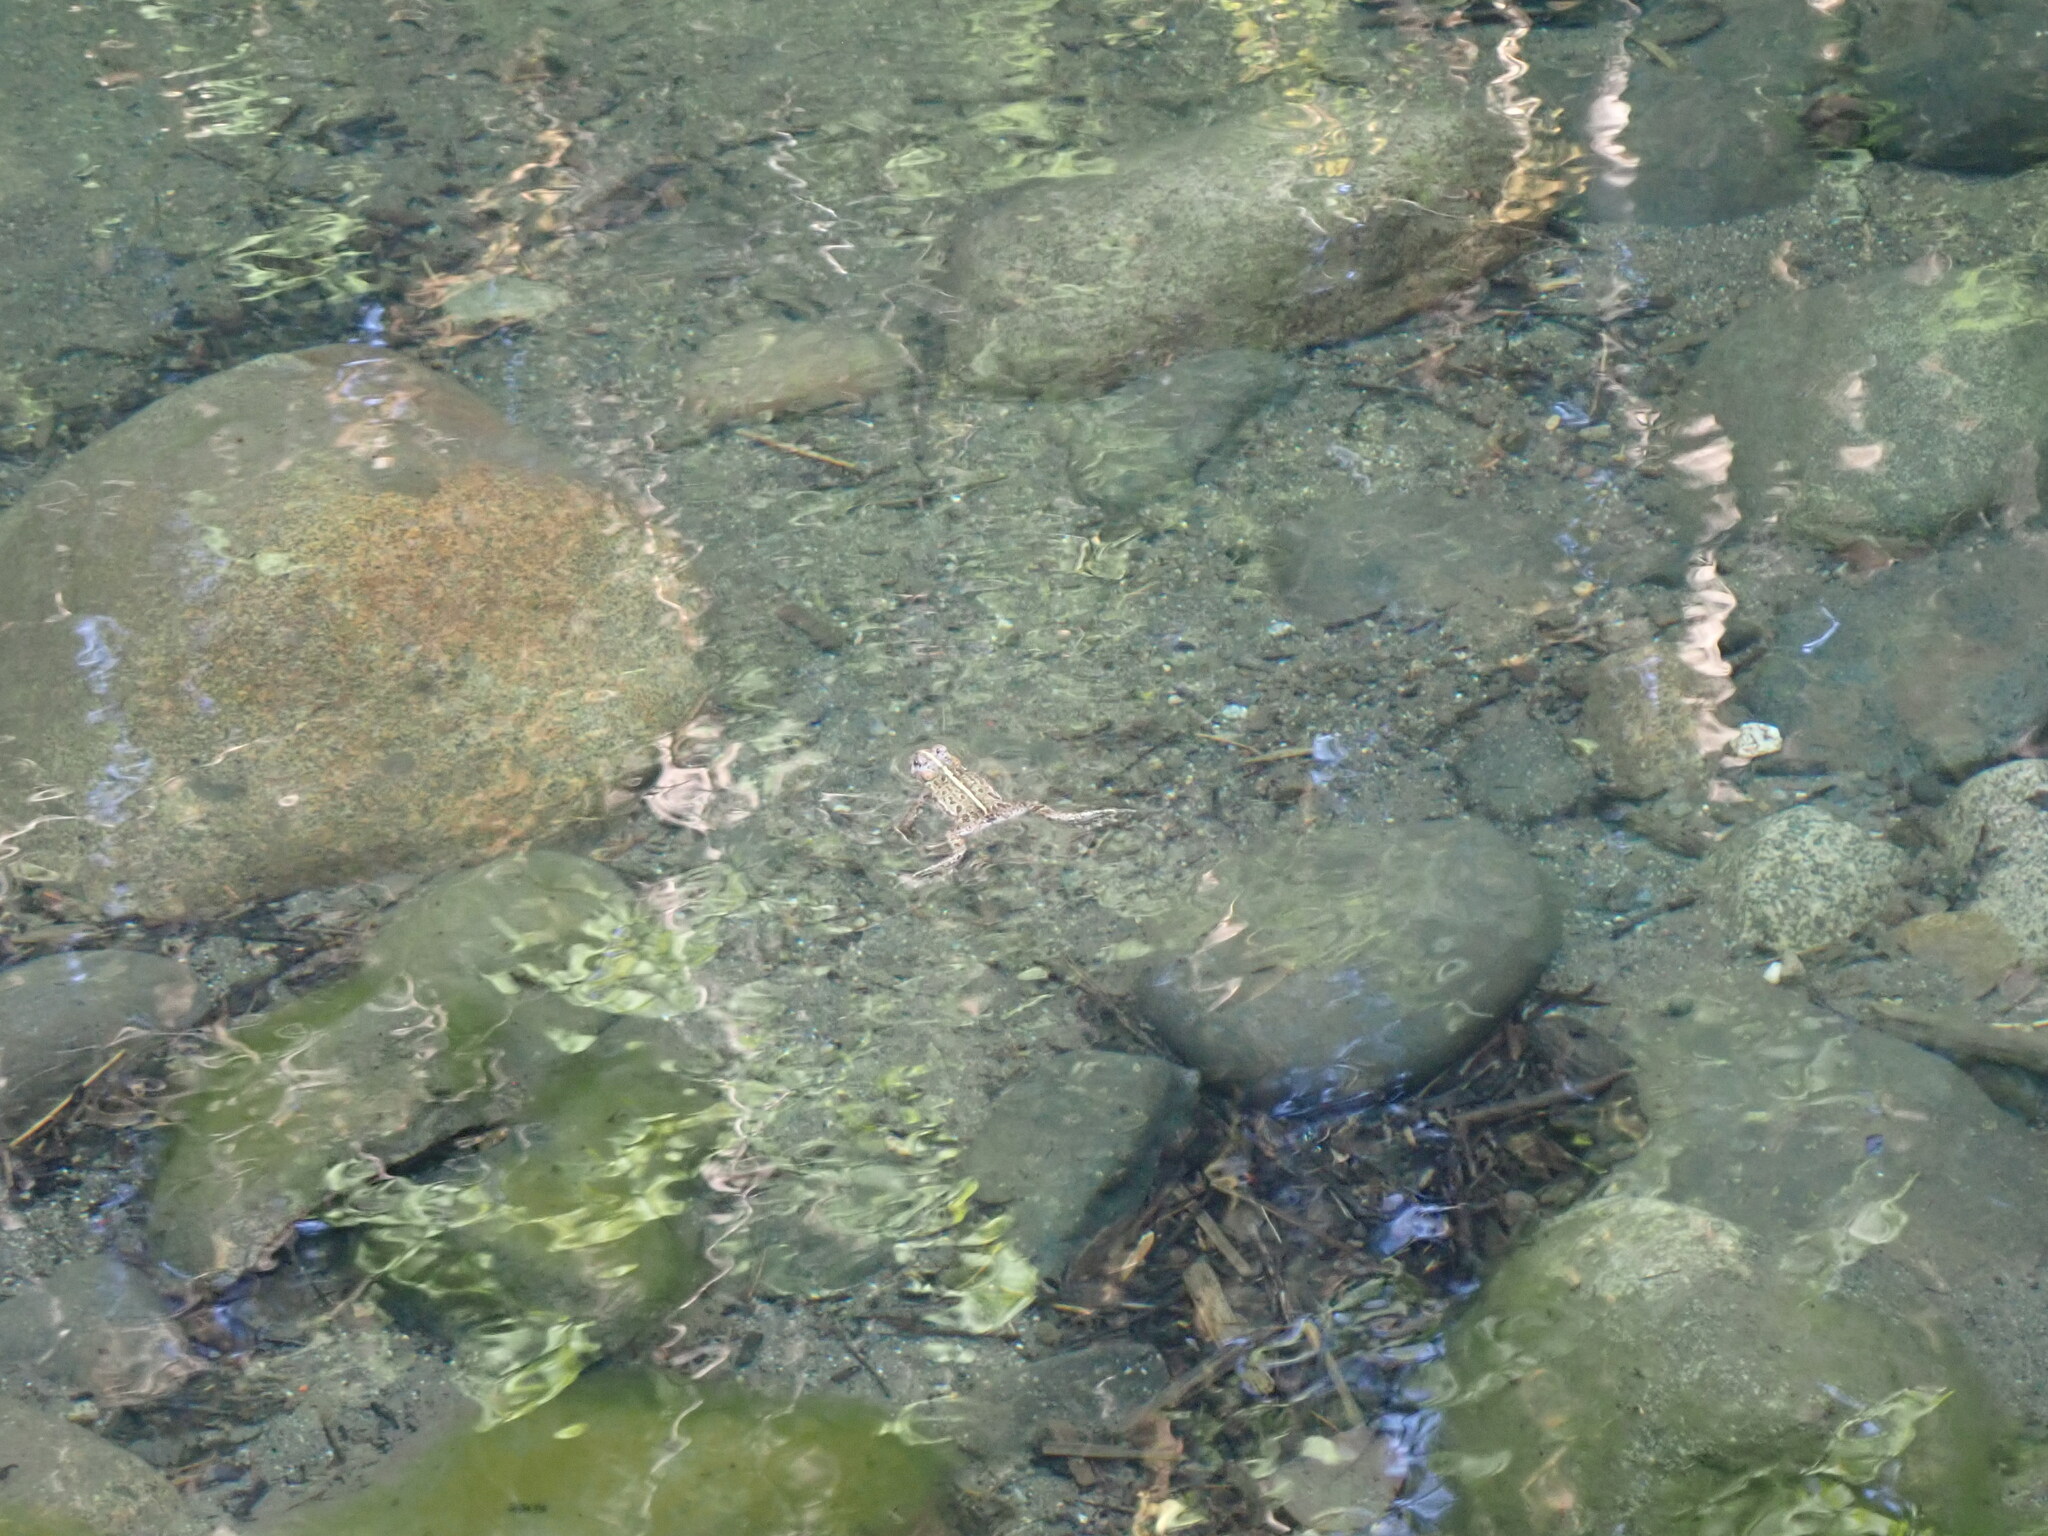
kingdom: Animalia
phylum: Chordata
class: Amphibia
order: Anura
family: Bufonidae
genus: Anaxyrus
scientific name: Anaxyrus boreas
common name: Western toad
